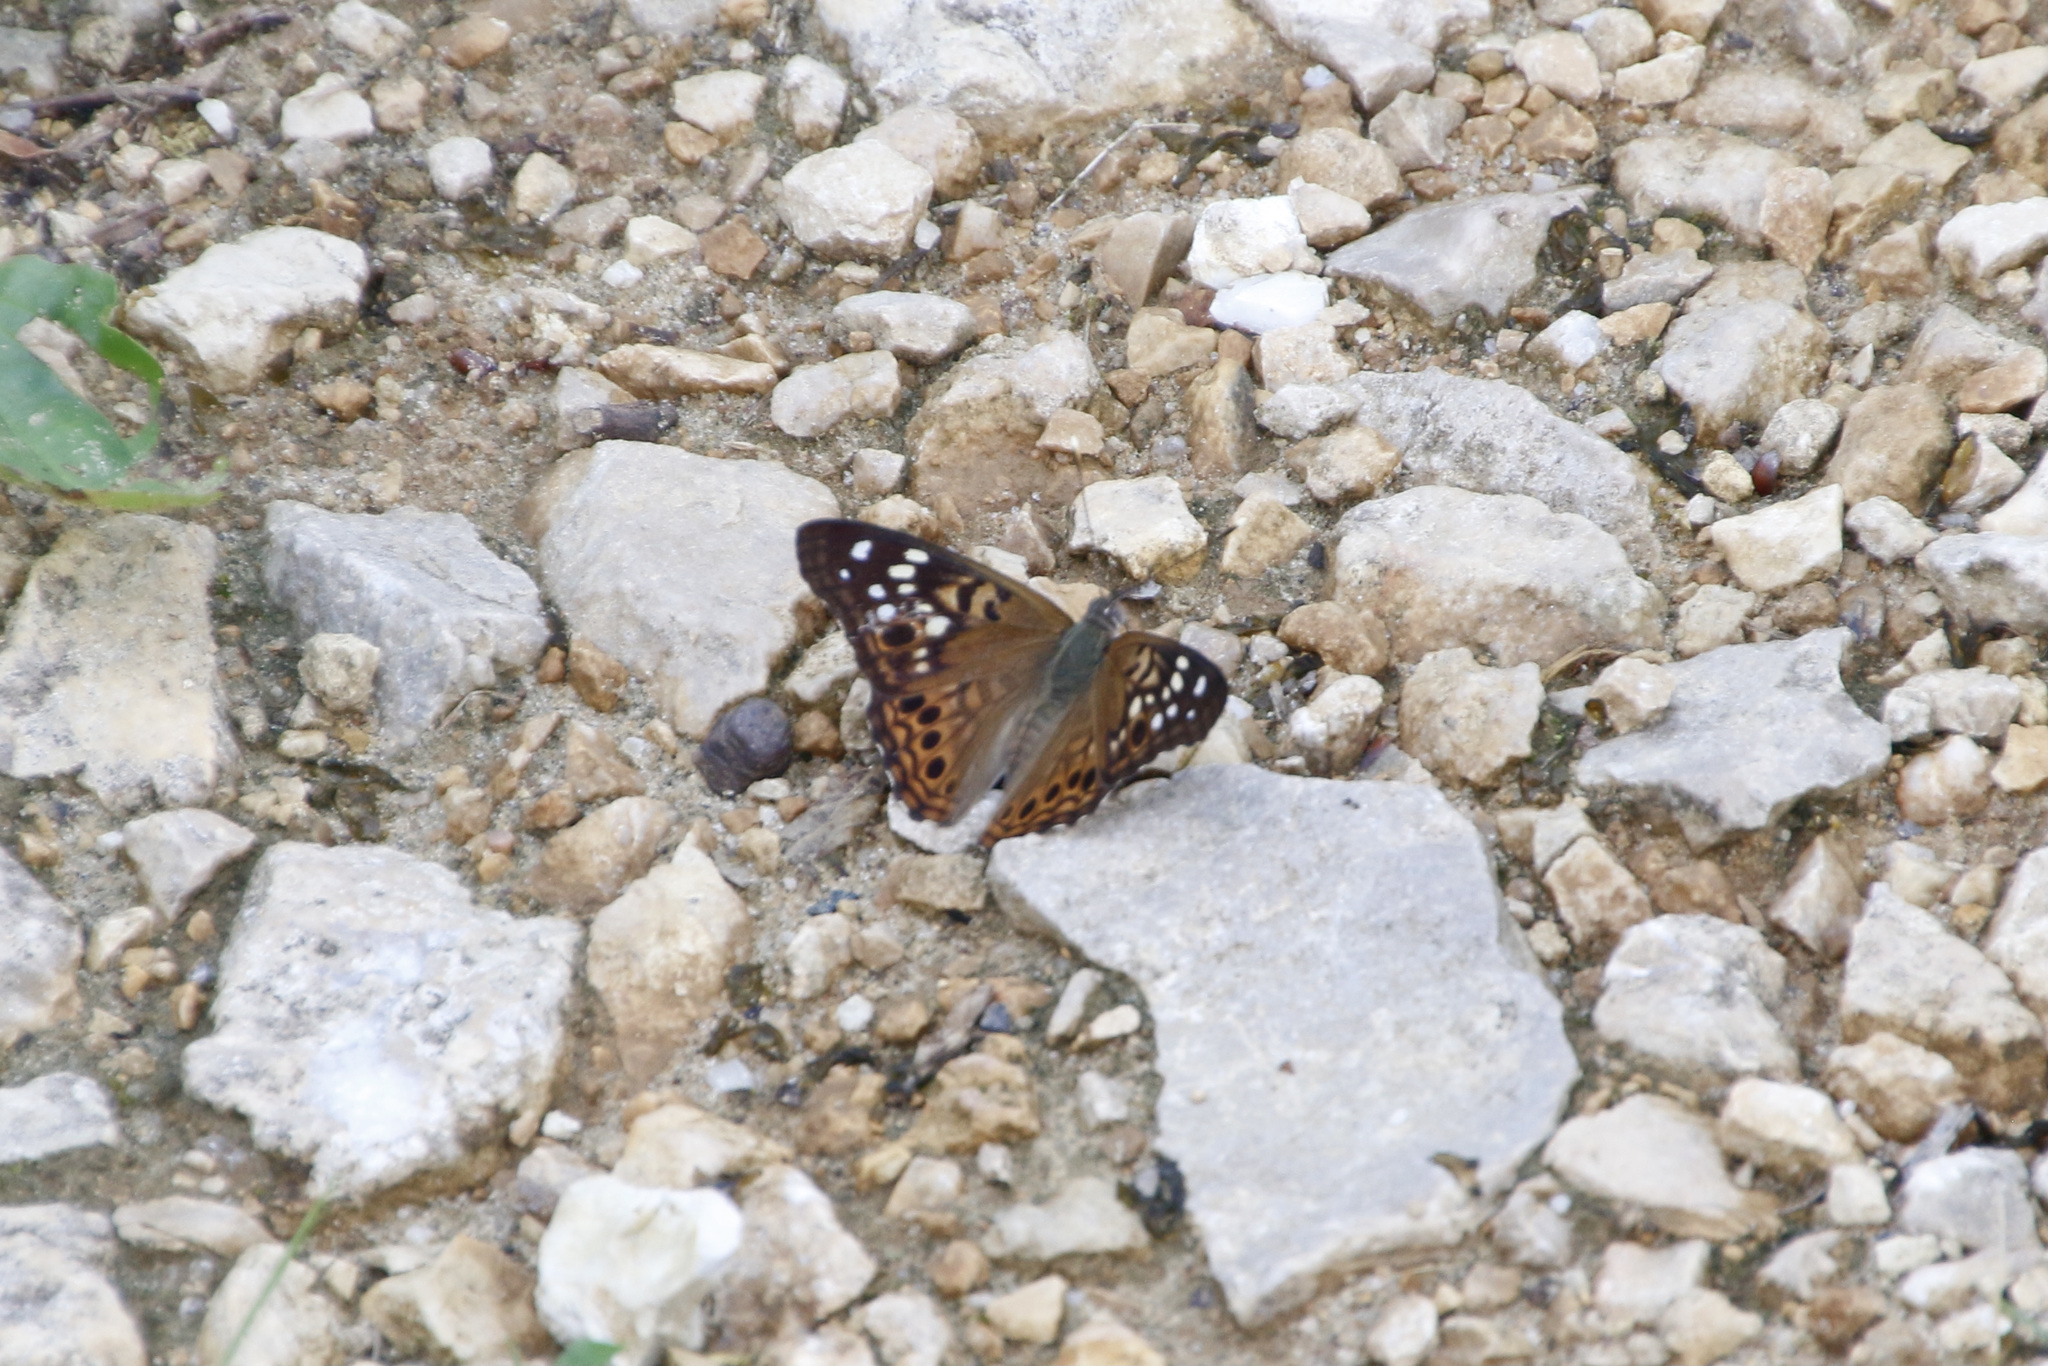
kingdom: Animalia
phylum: Arthropoda
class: Insecta
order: Lepidoptera
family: Nymphalidae
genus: Asterocampa
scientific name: Asterocampa celtis
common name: Hackberry emperor
